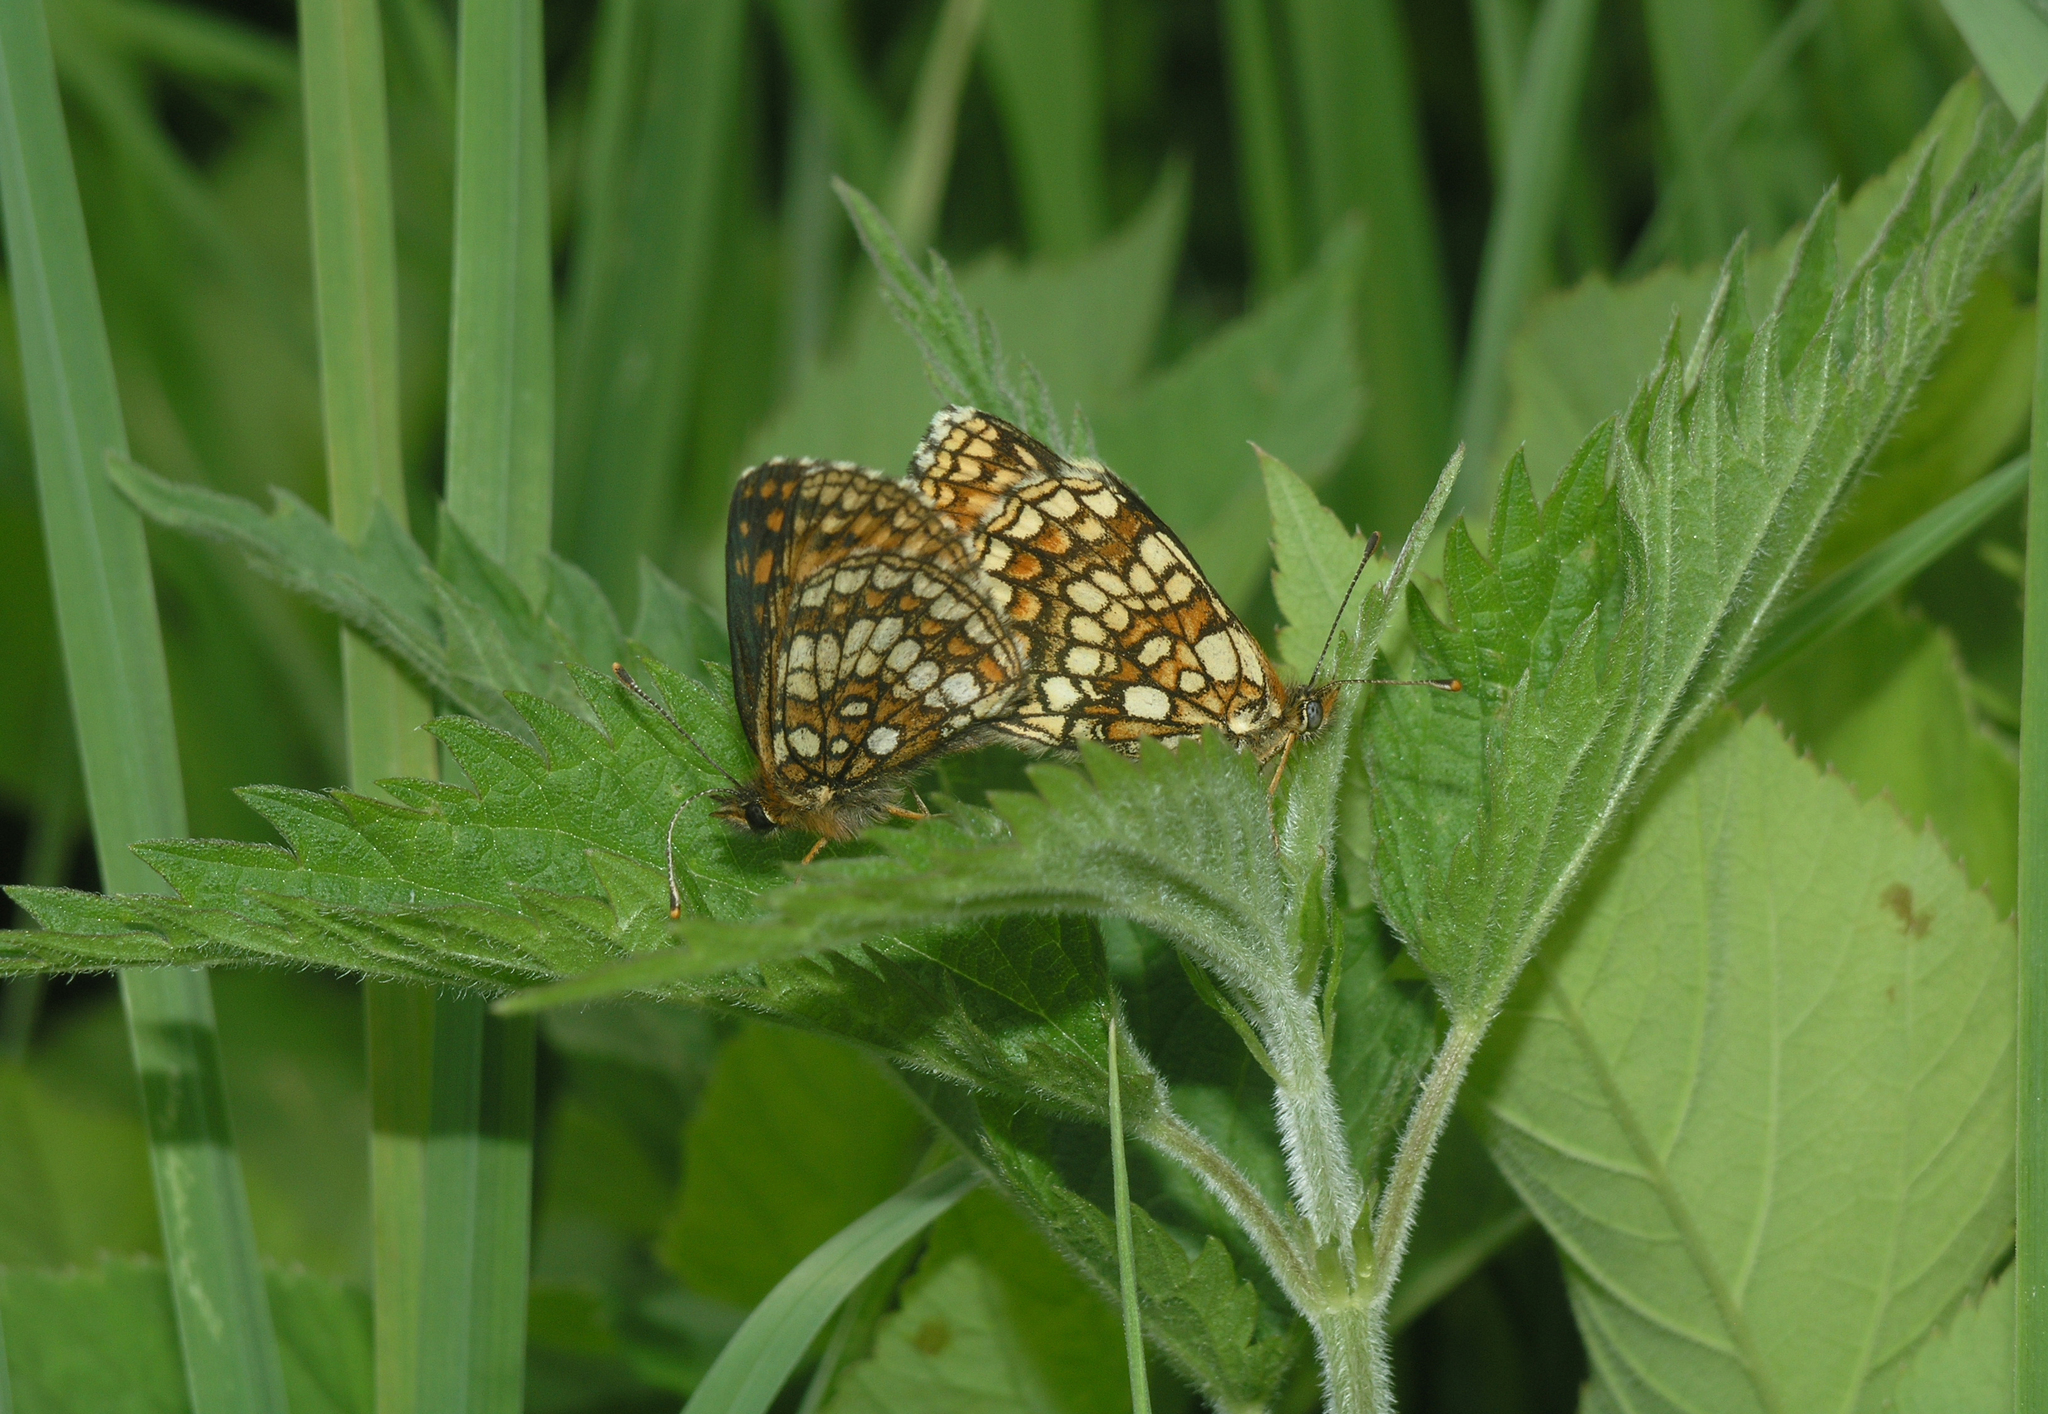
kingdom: Plantae
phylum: Tracheophyta
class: Magnoliopsida
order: Rosales
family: Urticaceae
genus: Urtica
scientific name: Urtica galeopsifolia
